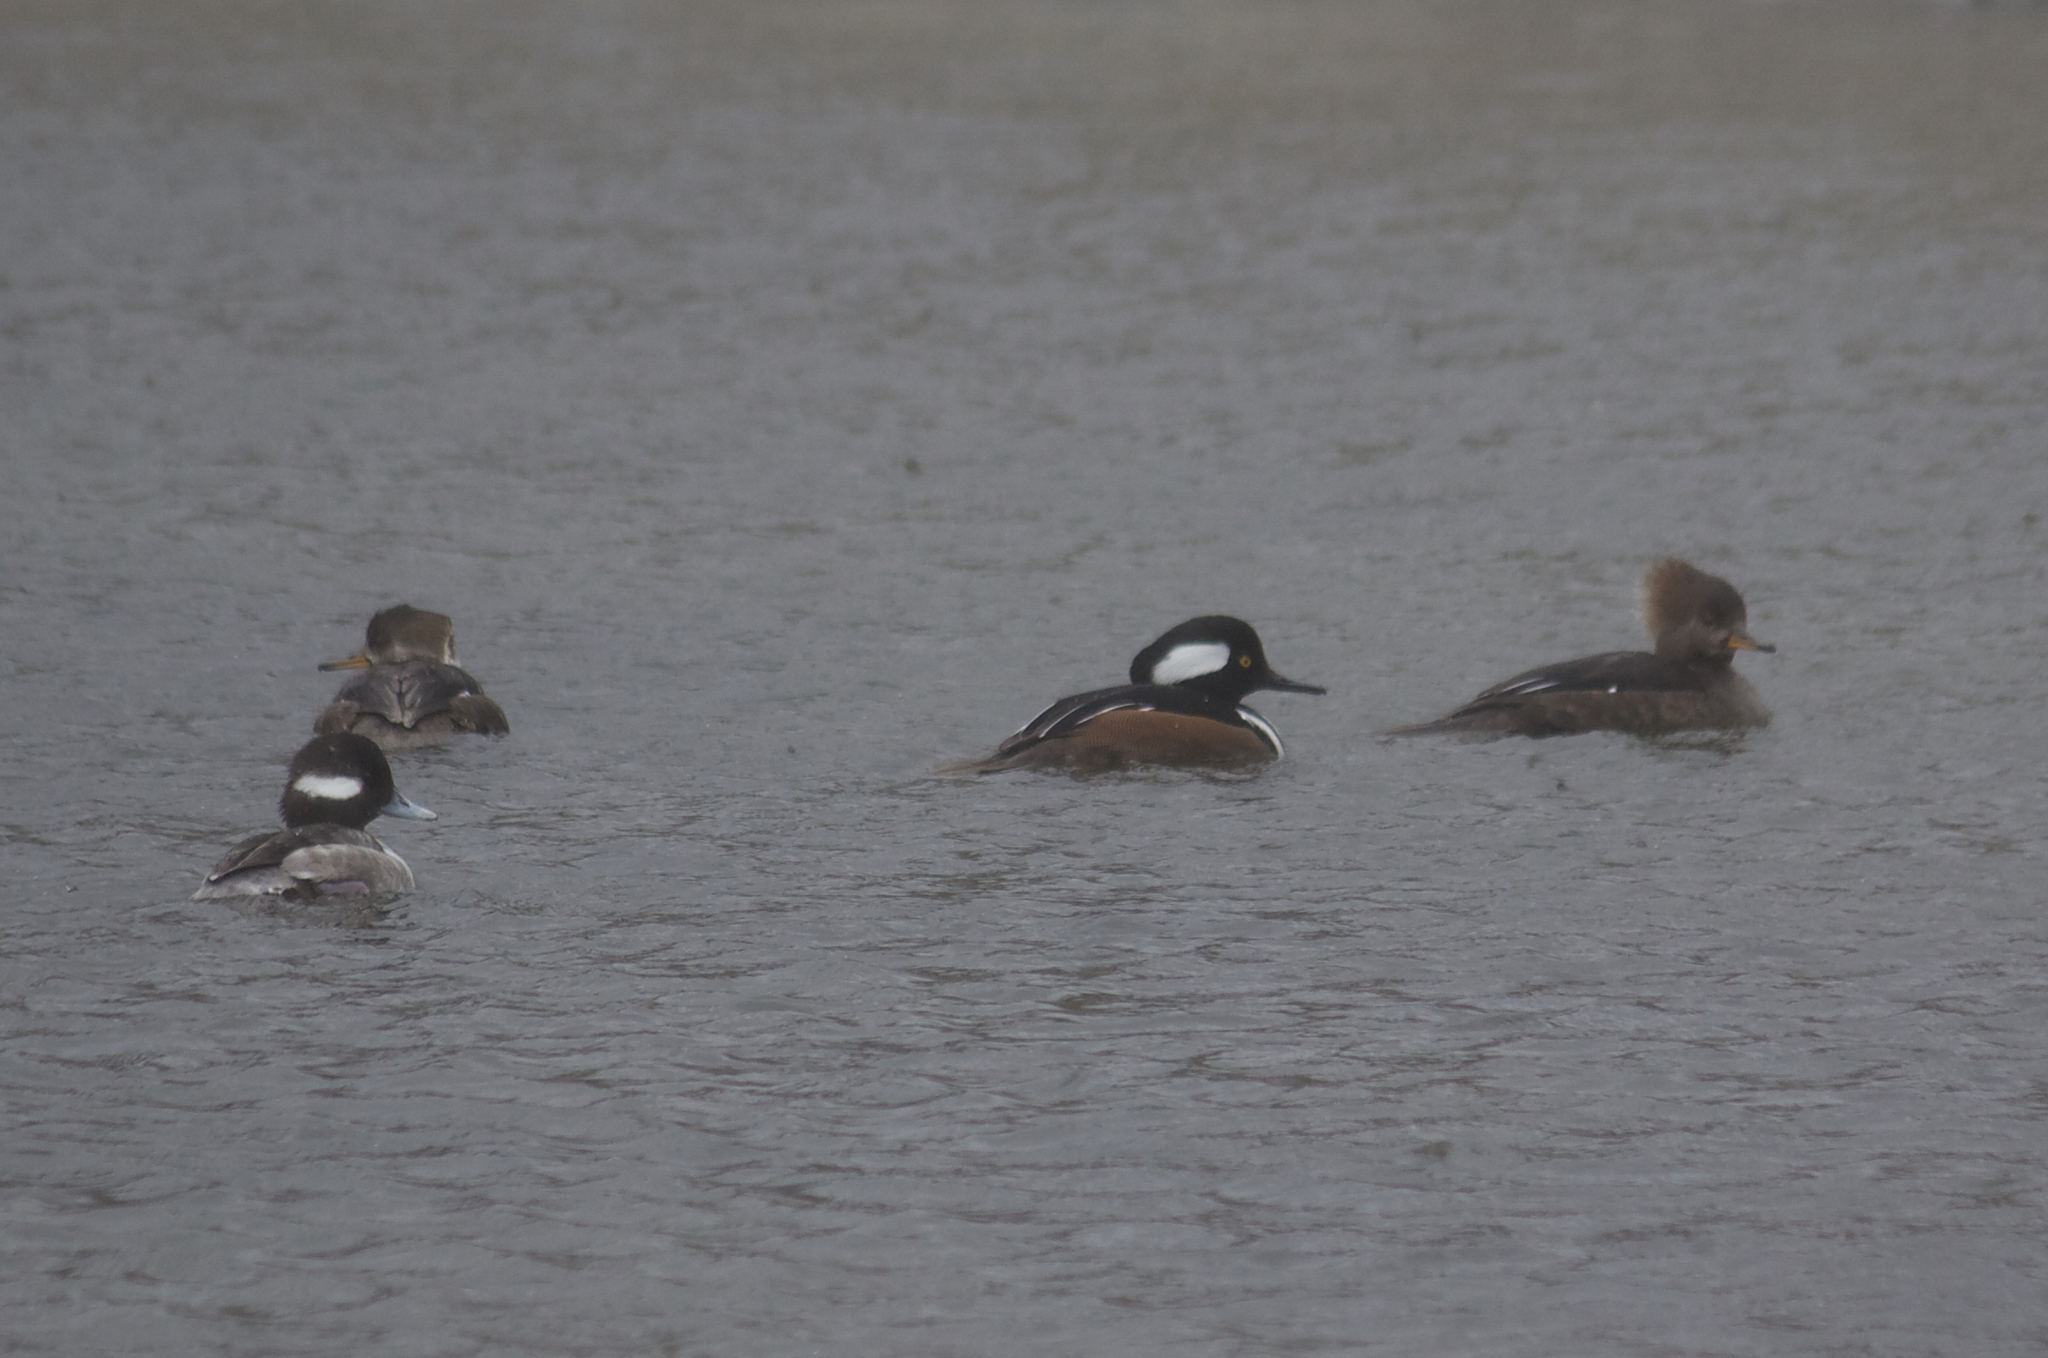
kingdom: Animalia
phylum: Chordata
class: Aves
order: Anseriformes
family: Anatidae
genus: Lophodytes
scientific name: Lophodytes cucullatus
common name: Hooded merganser
